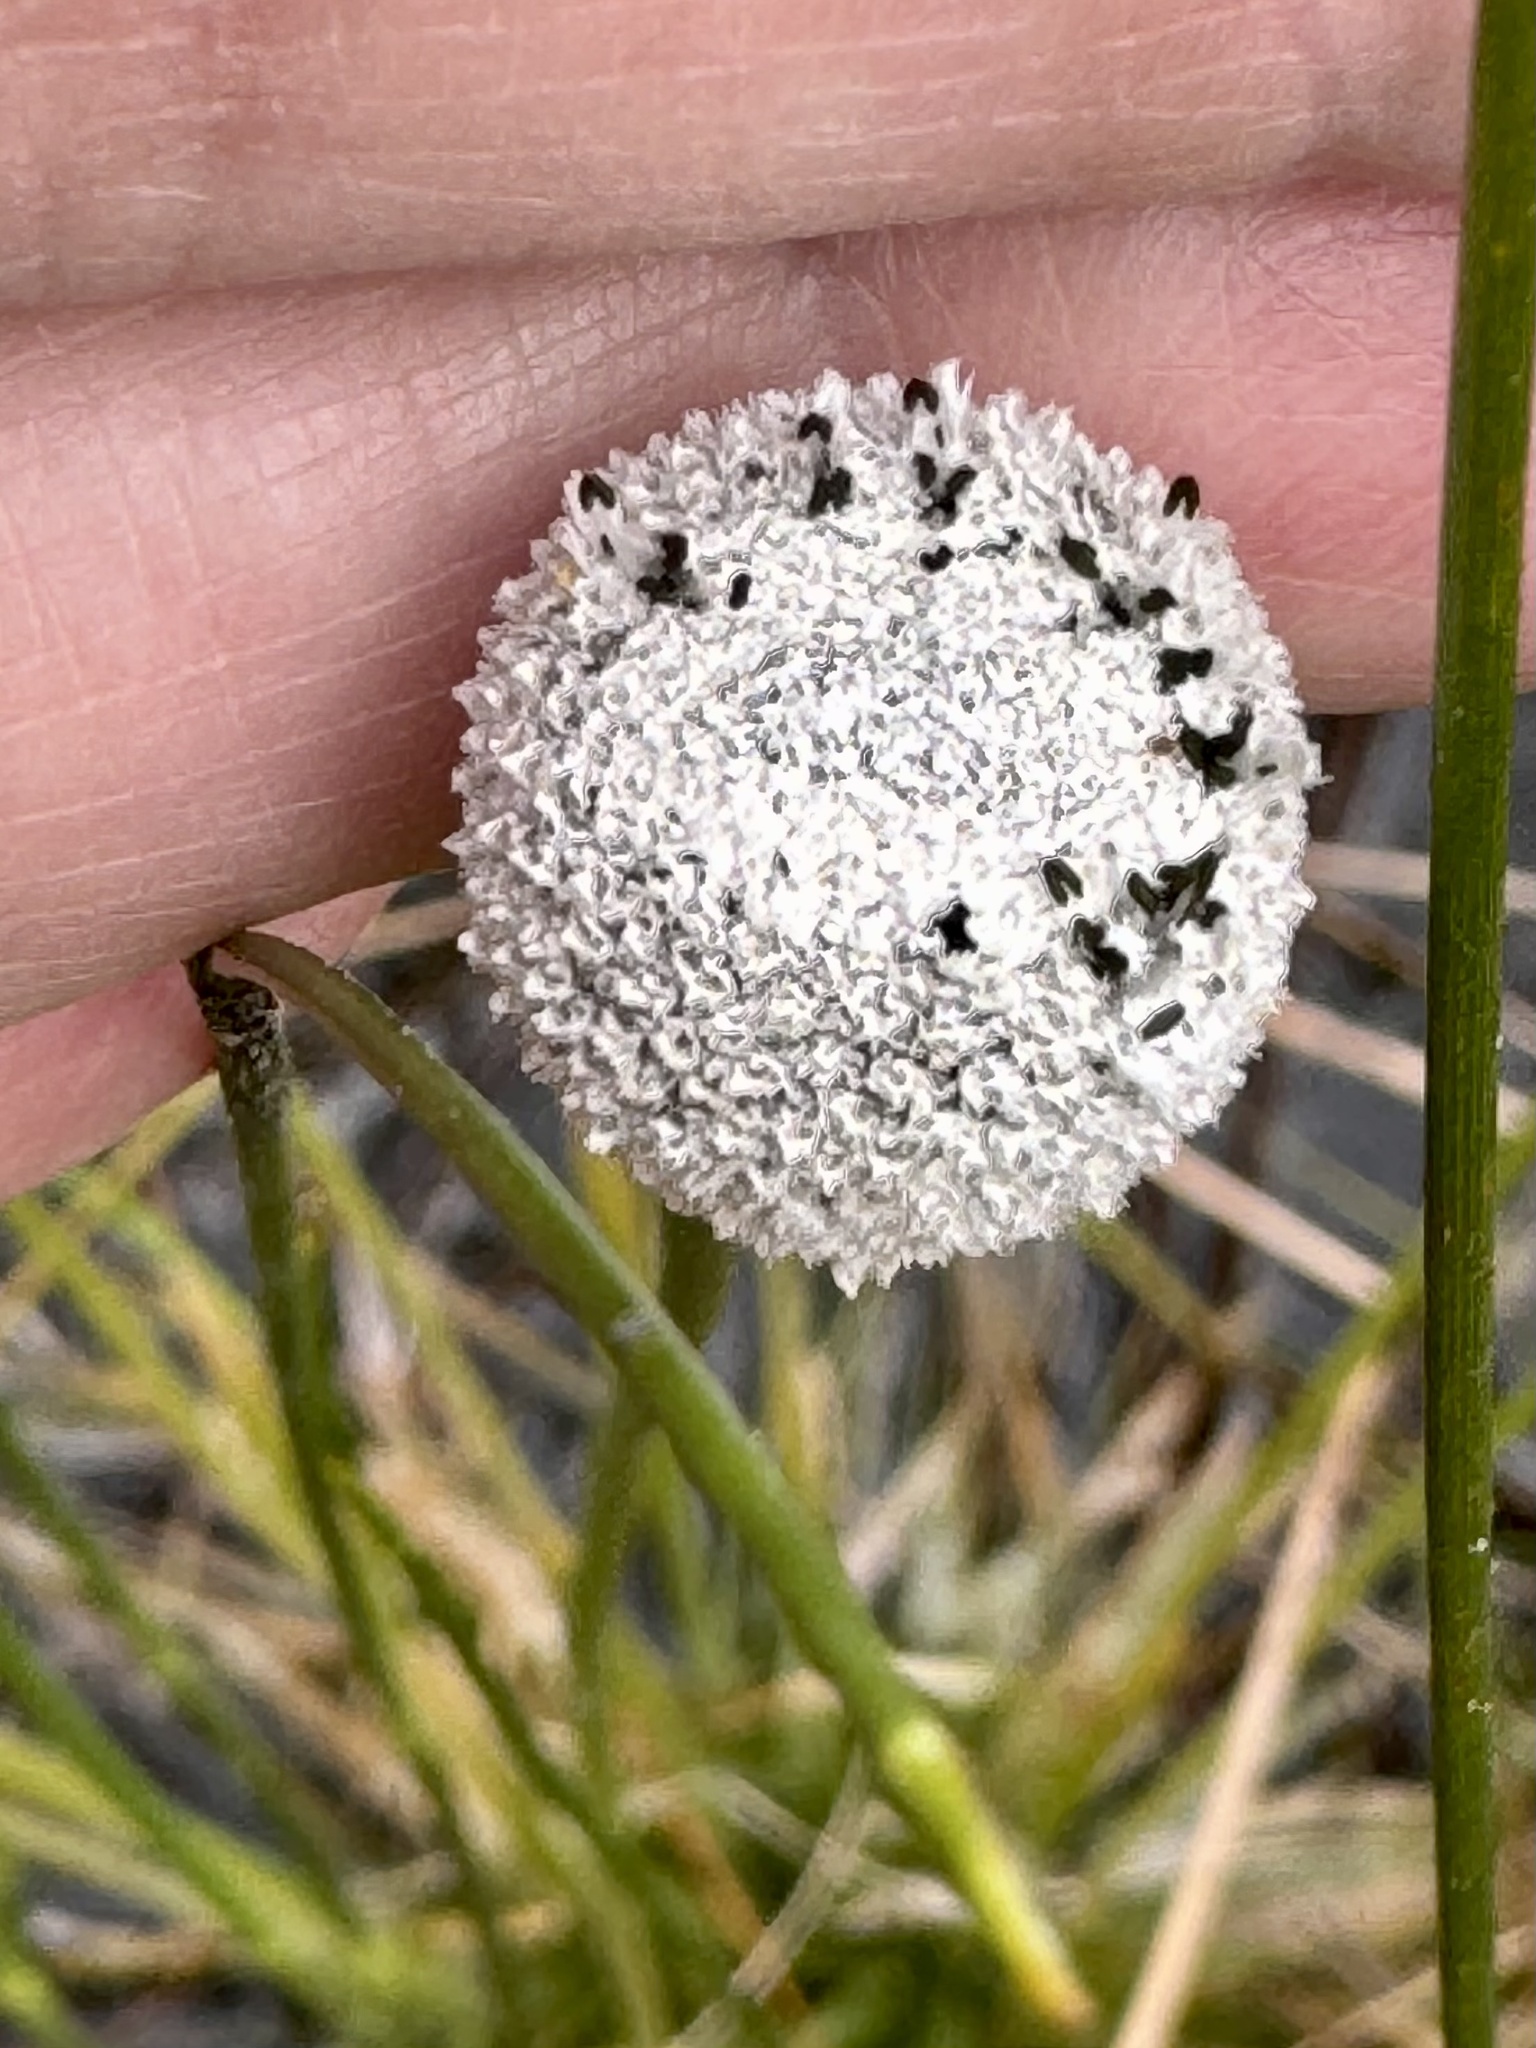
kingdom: Plantae
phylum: Tracheophyta
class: Liliopsida
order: Poales
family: Eriocaulaceae
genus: Eriocaulon
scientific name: Eriocaulon compressum
